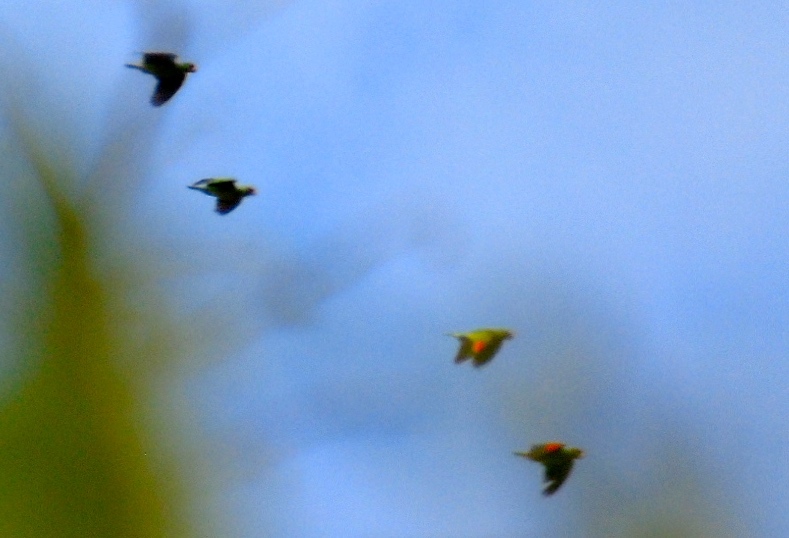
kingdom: Animalia
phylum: Chordata
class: Aves
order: Psittaciformes
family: Psittacidae
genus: Amazona
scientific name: Amazona albifrons
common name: White-fronted amazon
